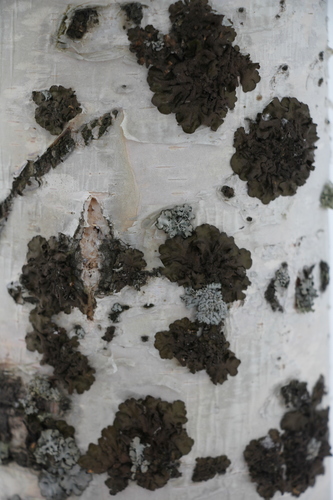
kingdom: Fungi
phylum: Ascomycota
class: Lecanoromycetes
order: Lecanorales
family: Parmeliaceae
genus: Melanohalea
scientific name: Melanohalea olivacea
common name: Spotted camouflage lichen
